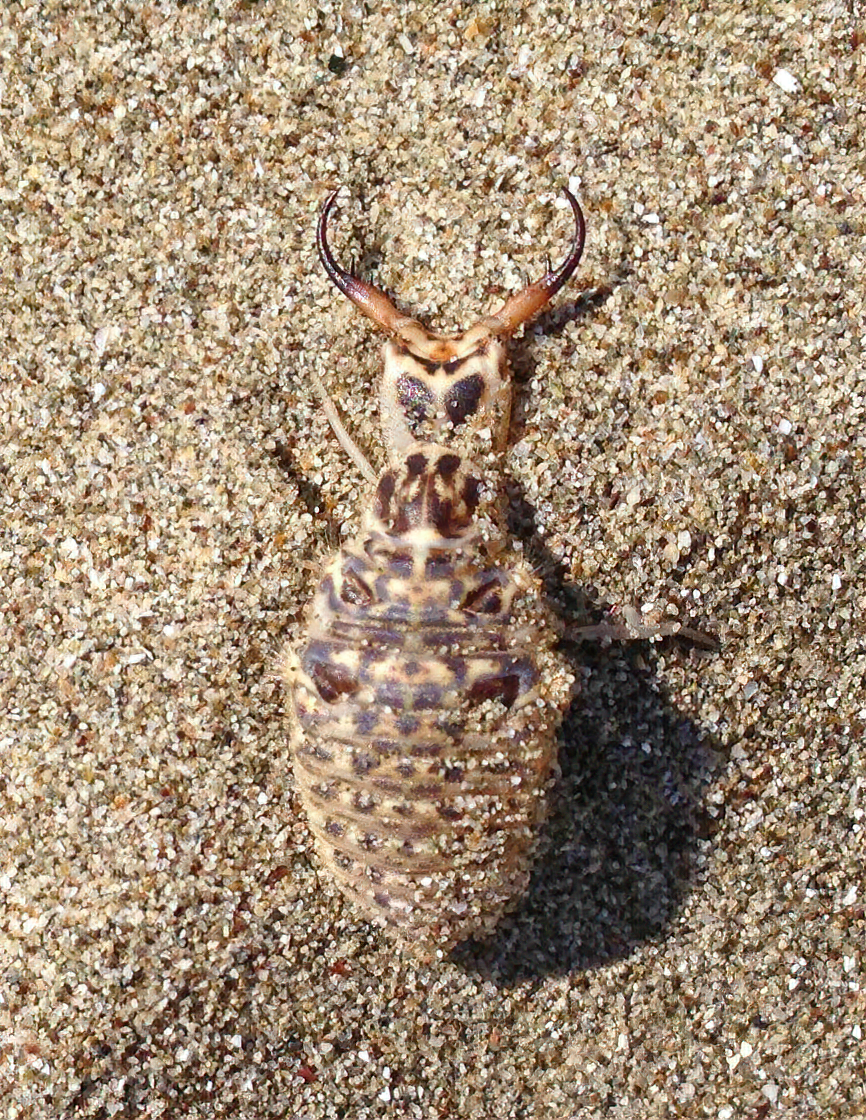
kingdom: Animalia
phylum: Arthropoda
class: Insecta
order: Neuroptera
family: Myrmeleontidae
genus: Synclisis
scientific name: Synclisis baetica
